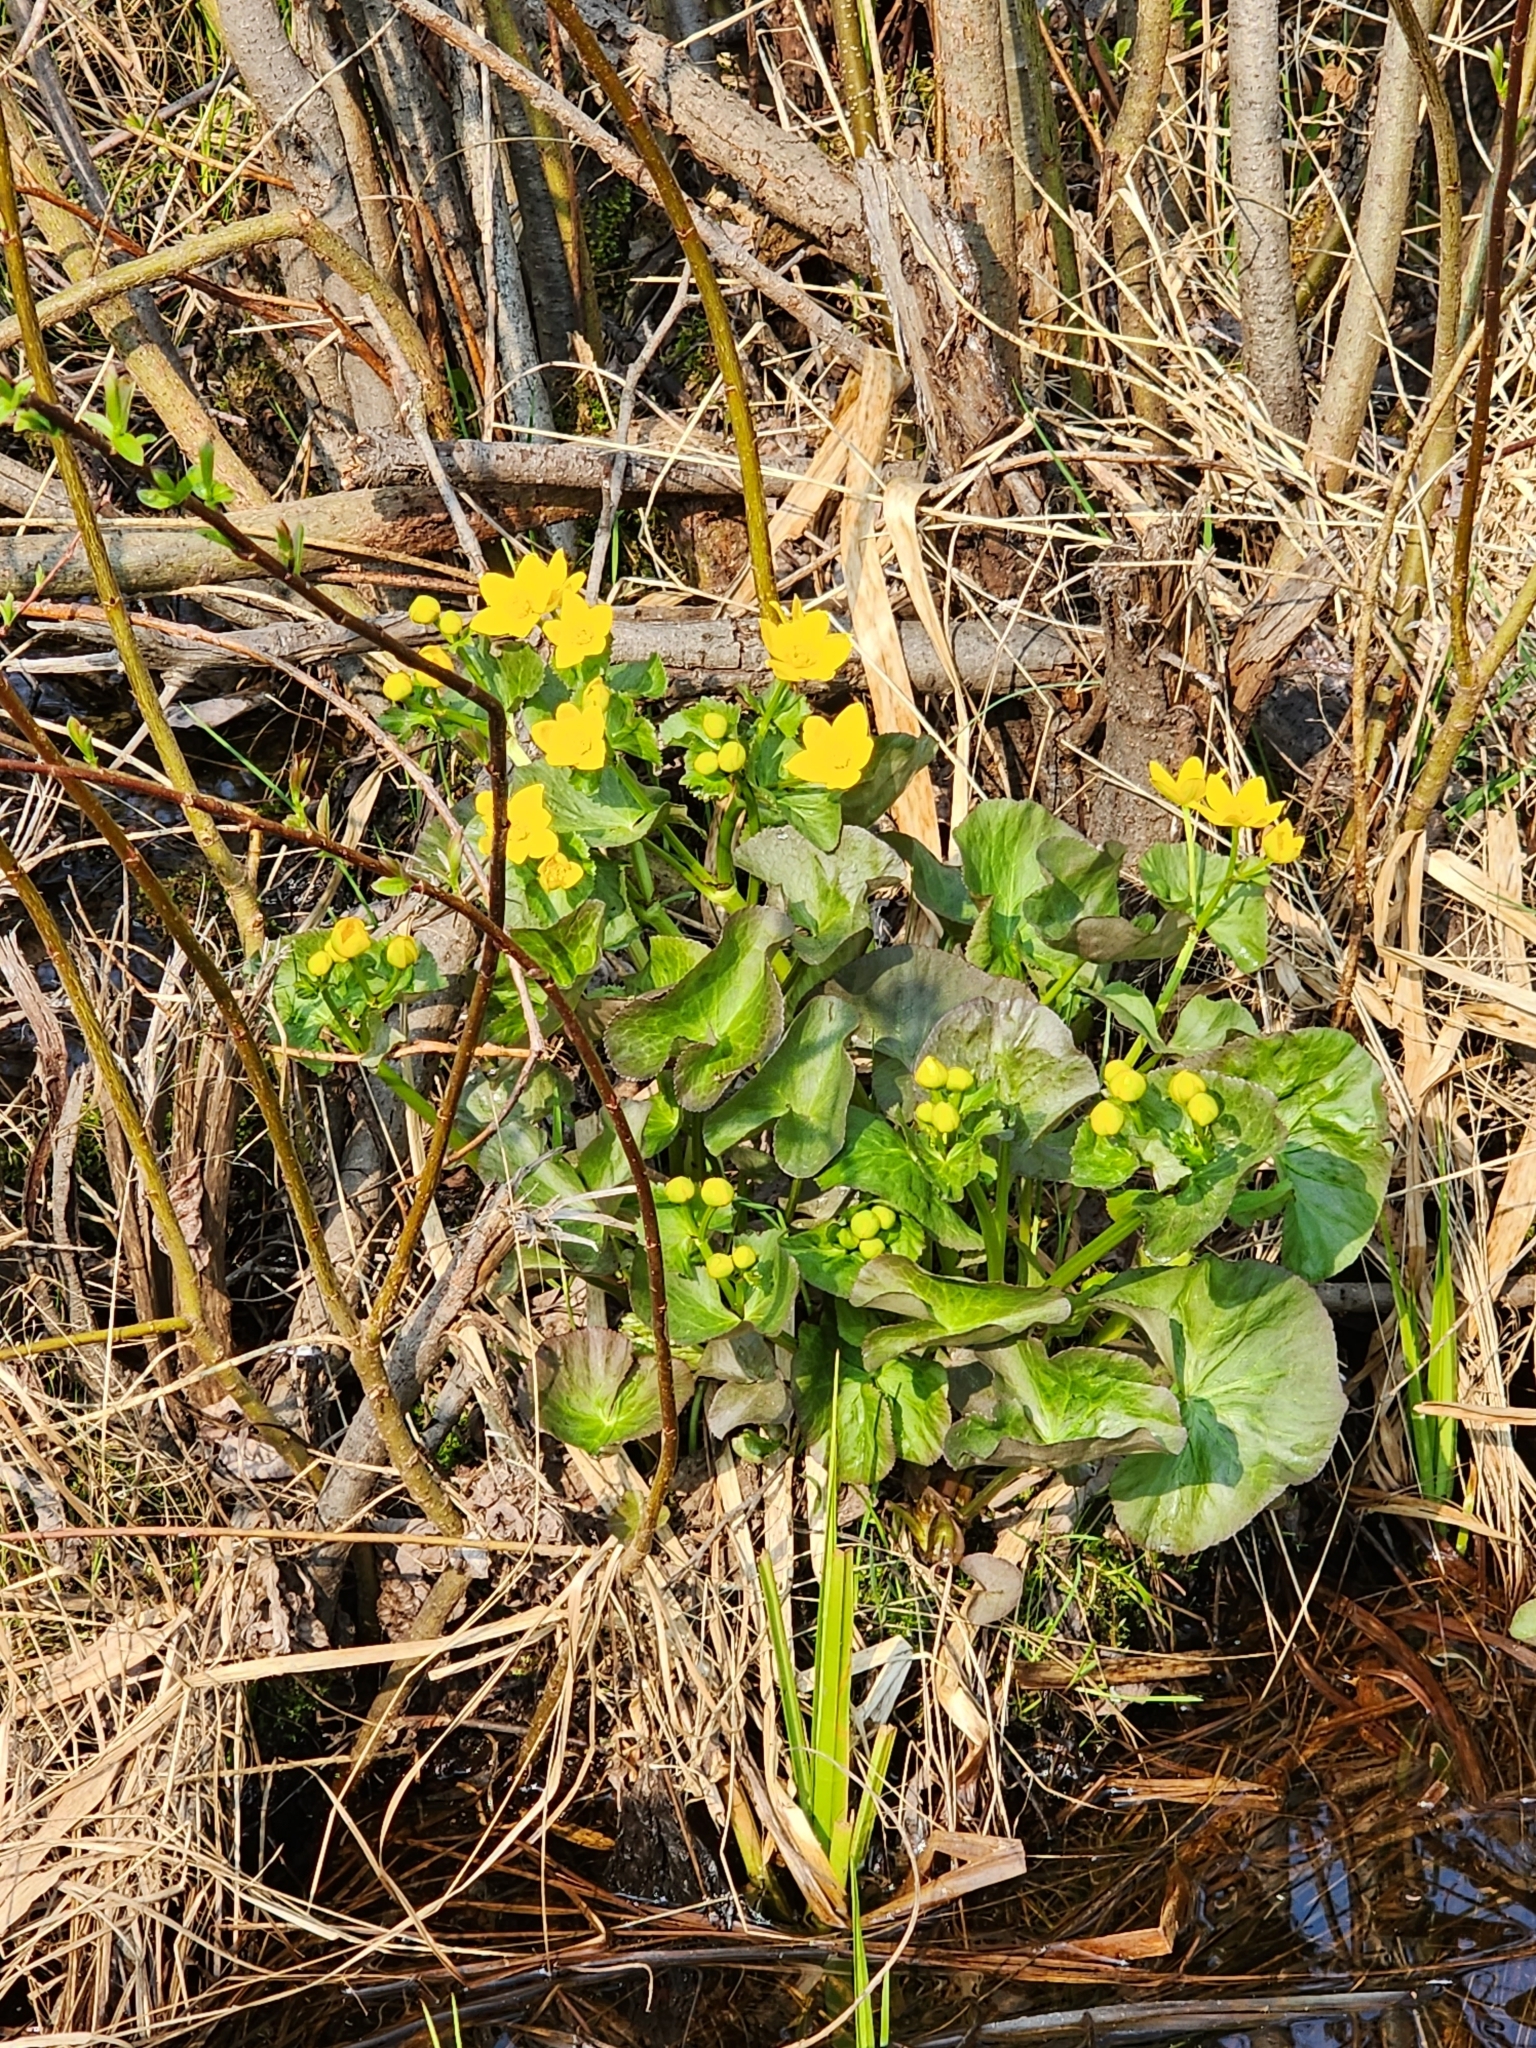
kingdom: Plantae
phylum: Tracheophyta
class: Magnoliopsida
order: Ranunculales
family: Ranunculaceae
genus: Caltha
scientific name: Caltha palustris
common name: Marsh marigold
